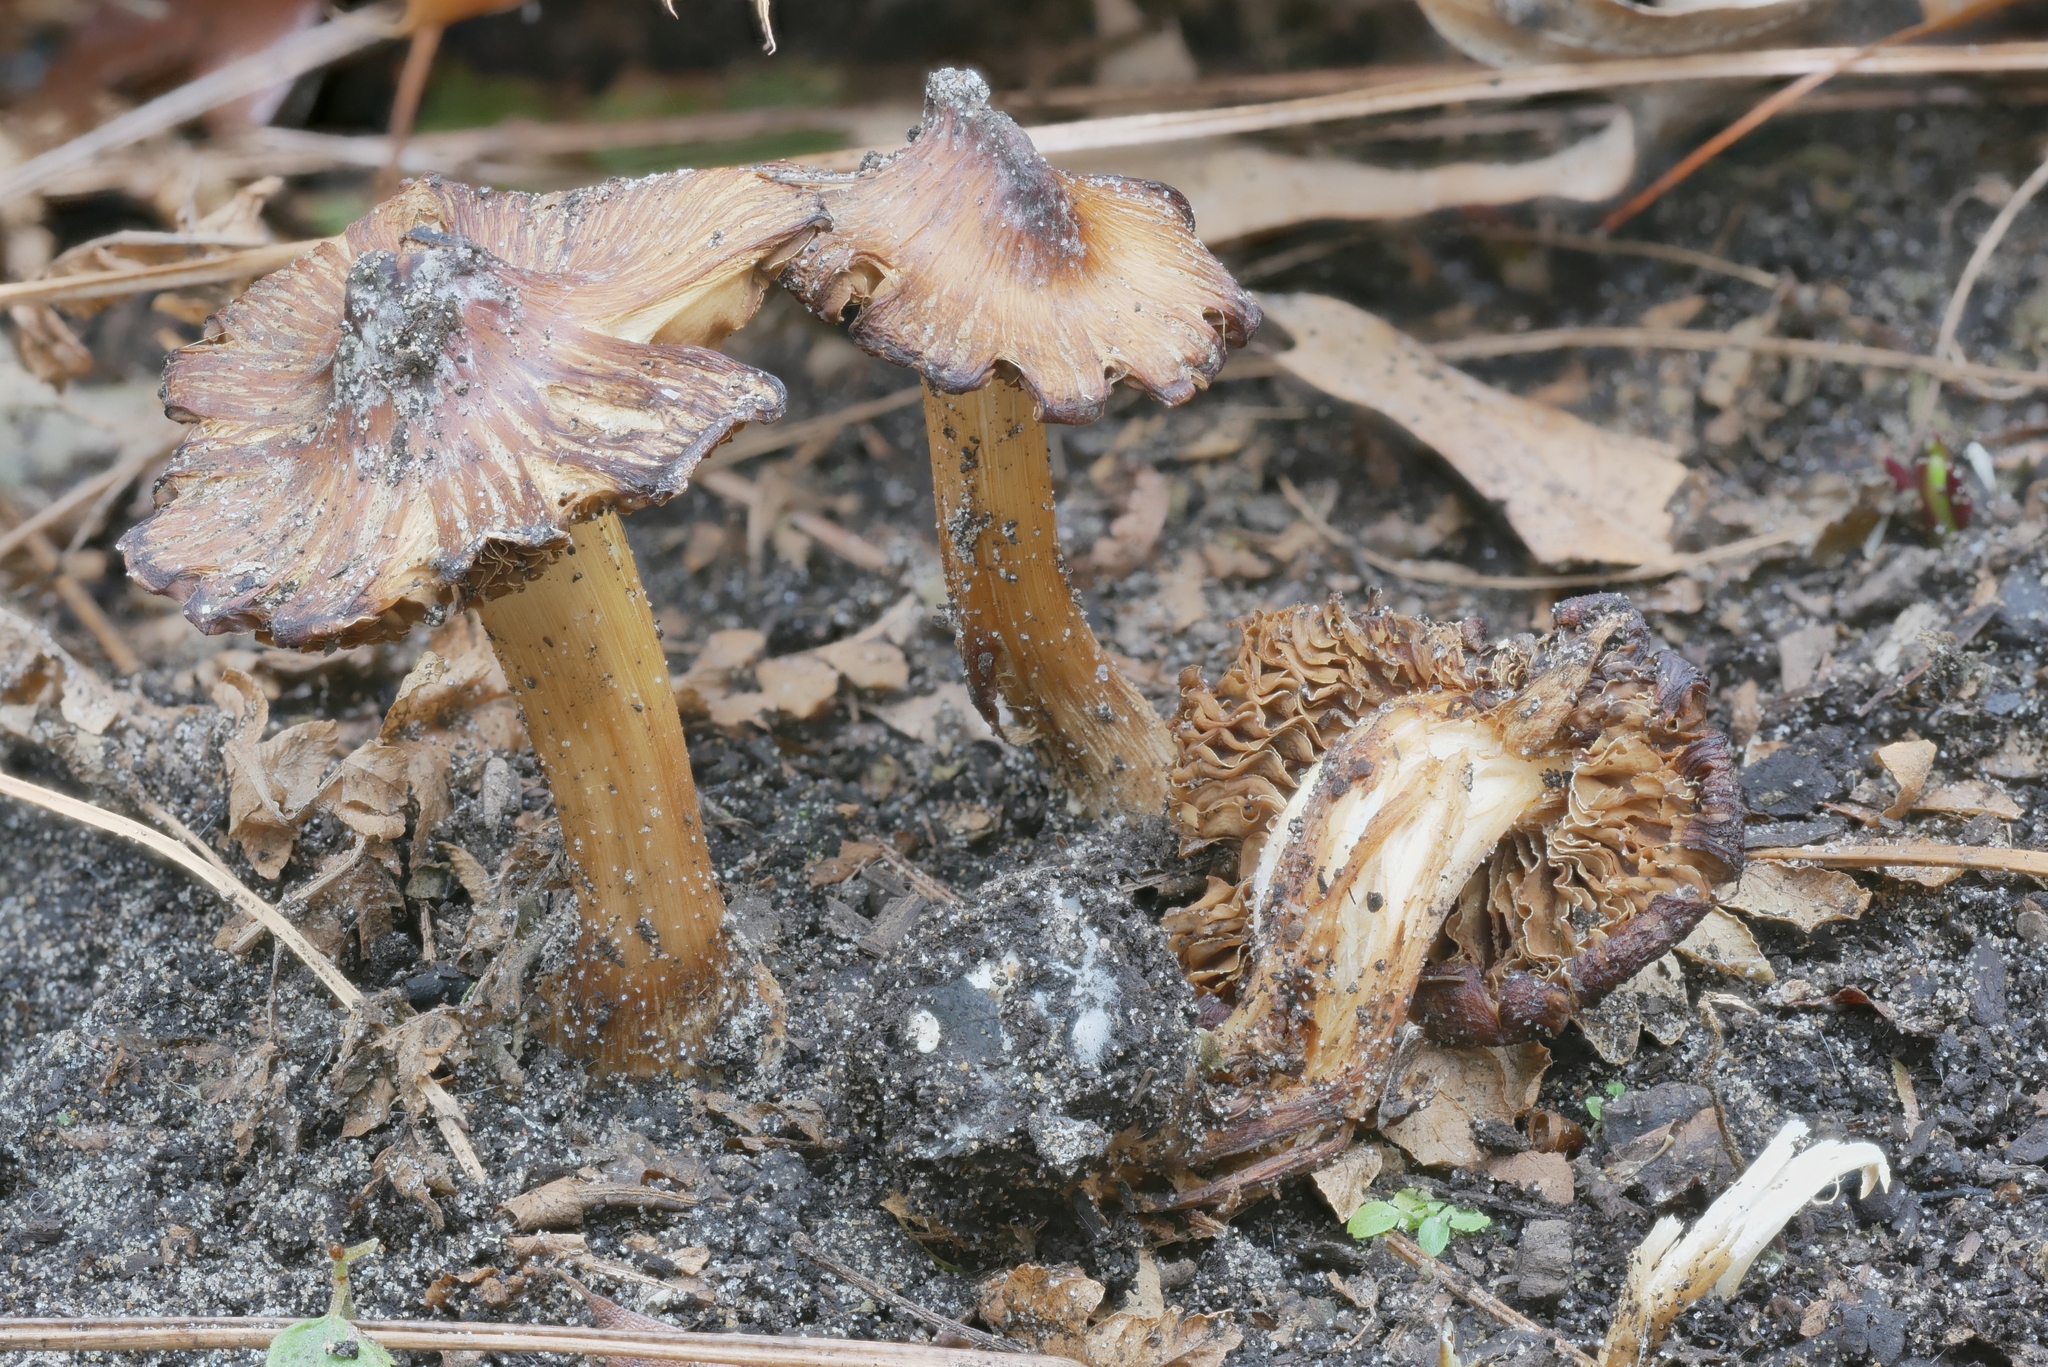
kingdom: Fungi
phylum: Basidiomycota
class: Agaricomycetes
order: Agaricales
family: Inocybaceae
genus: Inosperma
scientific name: Inosperma lanatodiscum
